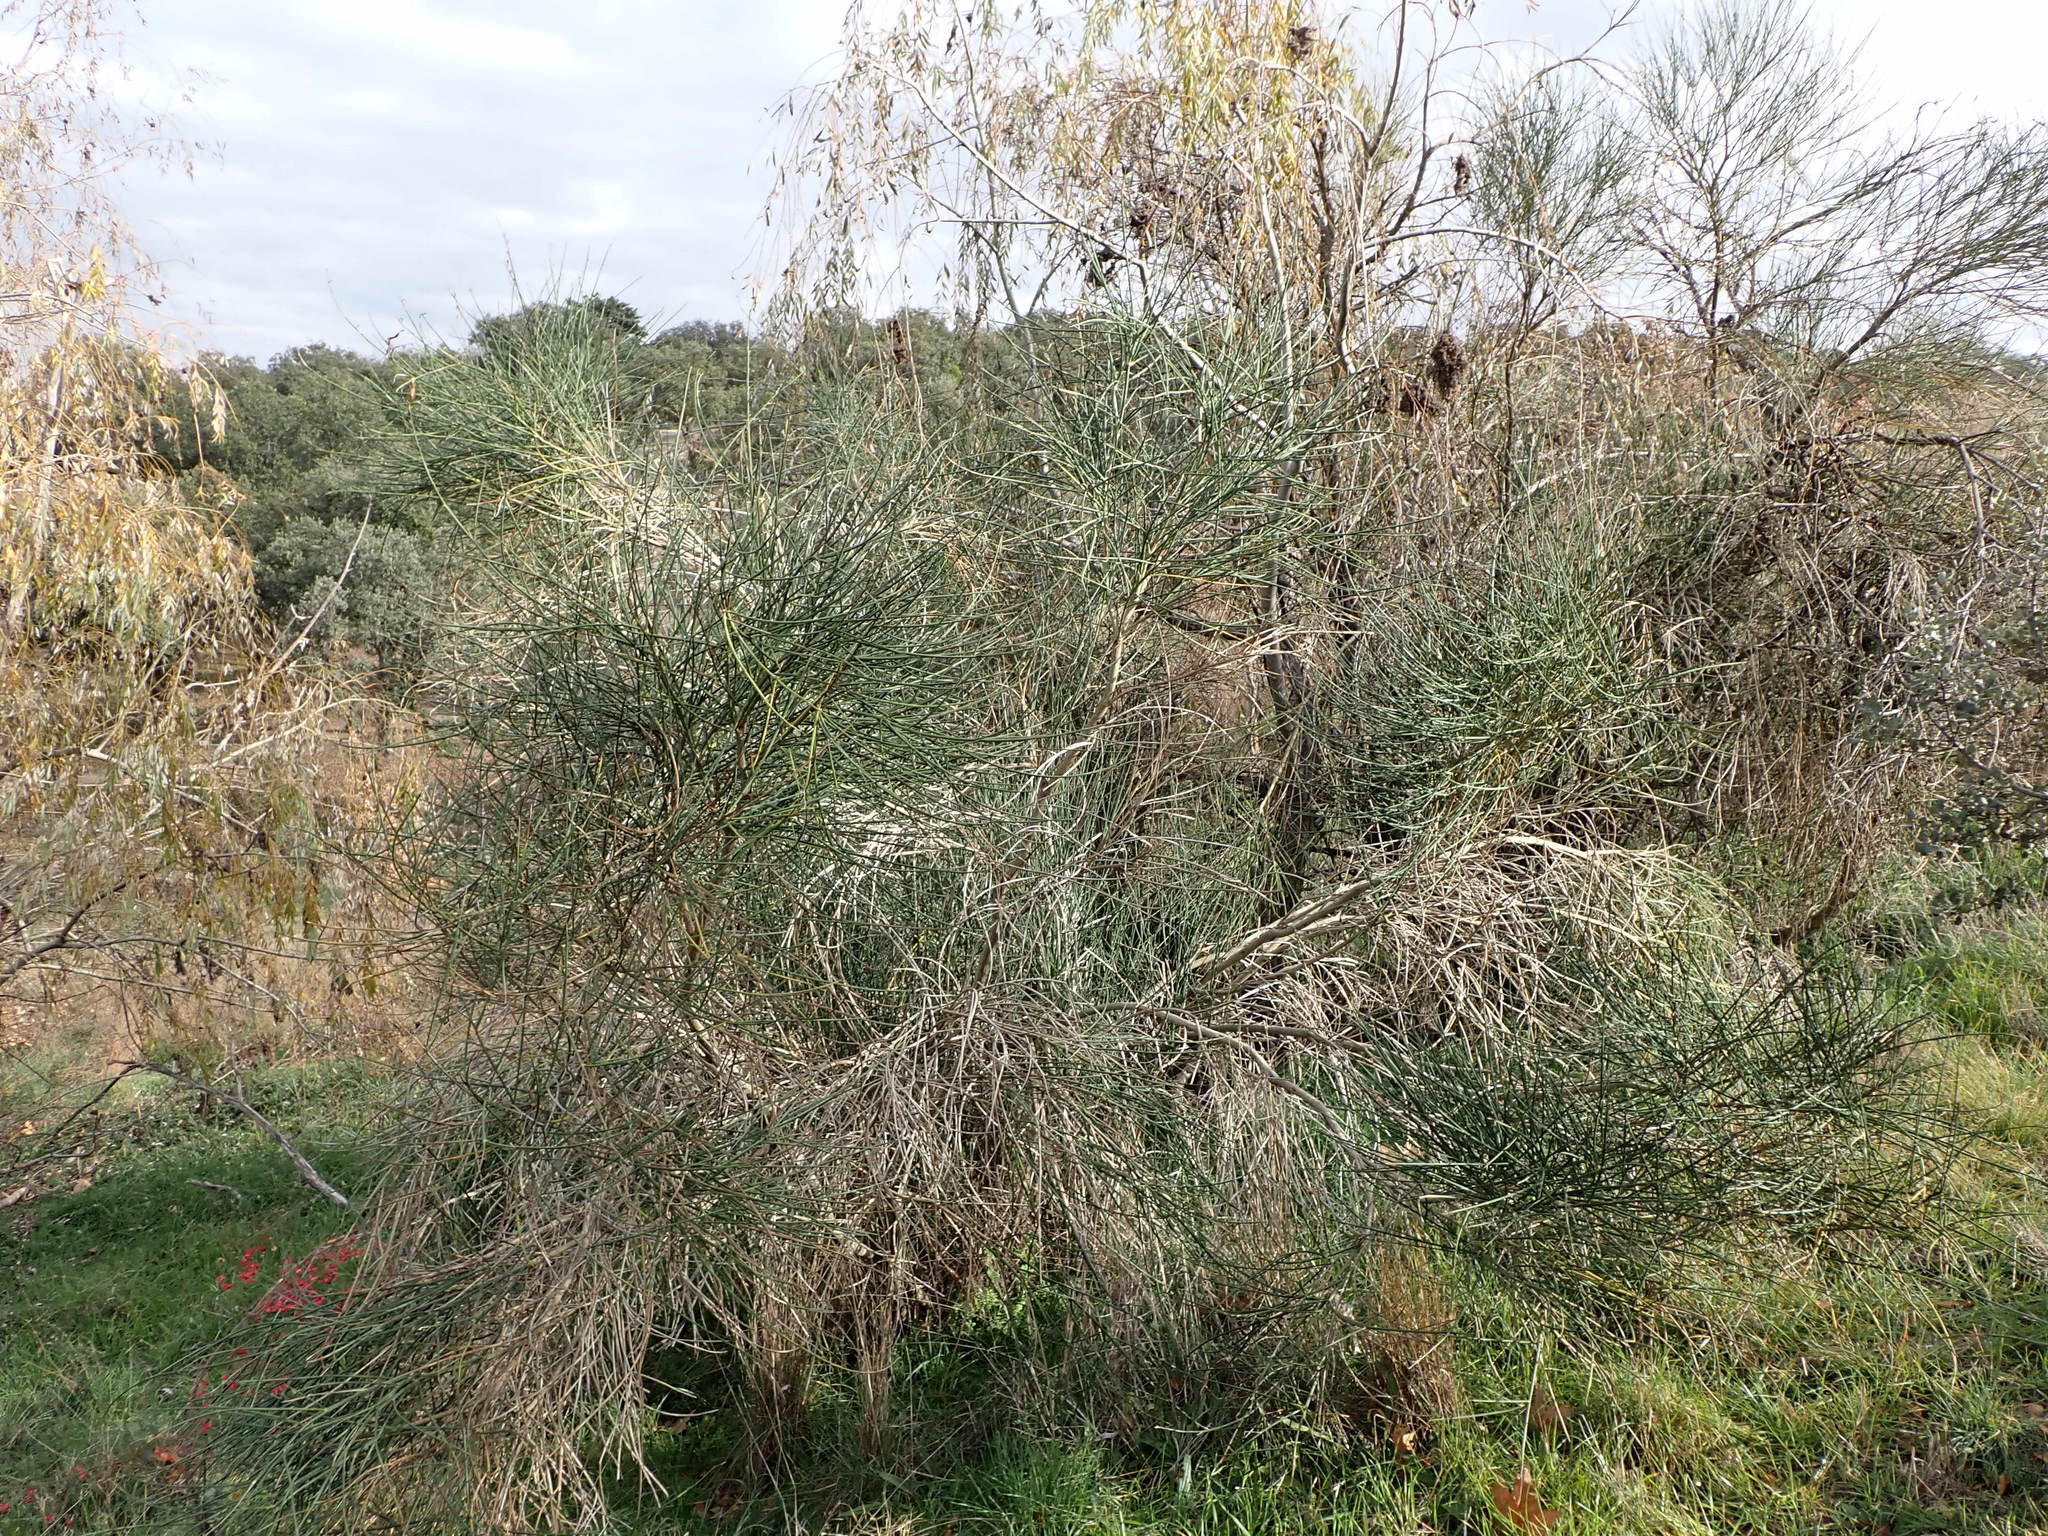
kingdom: Plantae
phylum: Tracheophyta
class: Magnoliopsida
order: Fabales
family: Fabaceae
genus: Spartium
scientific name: Spartium junceum
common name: Spanish broom
